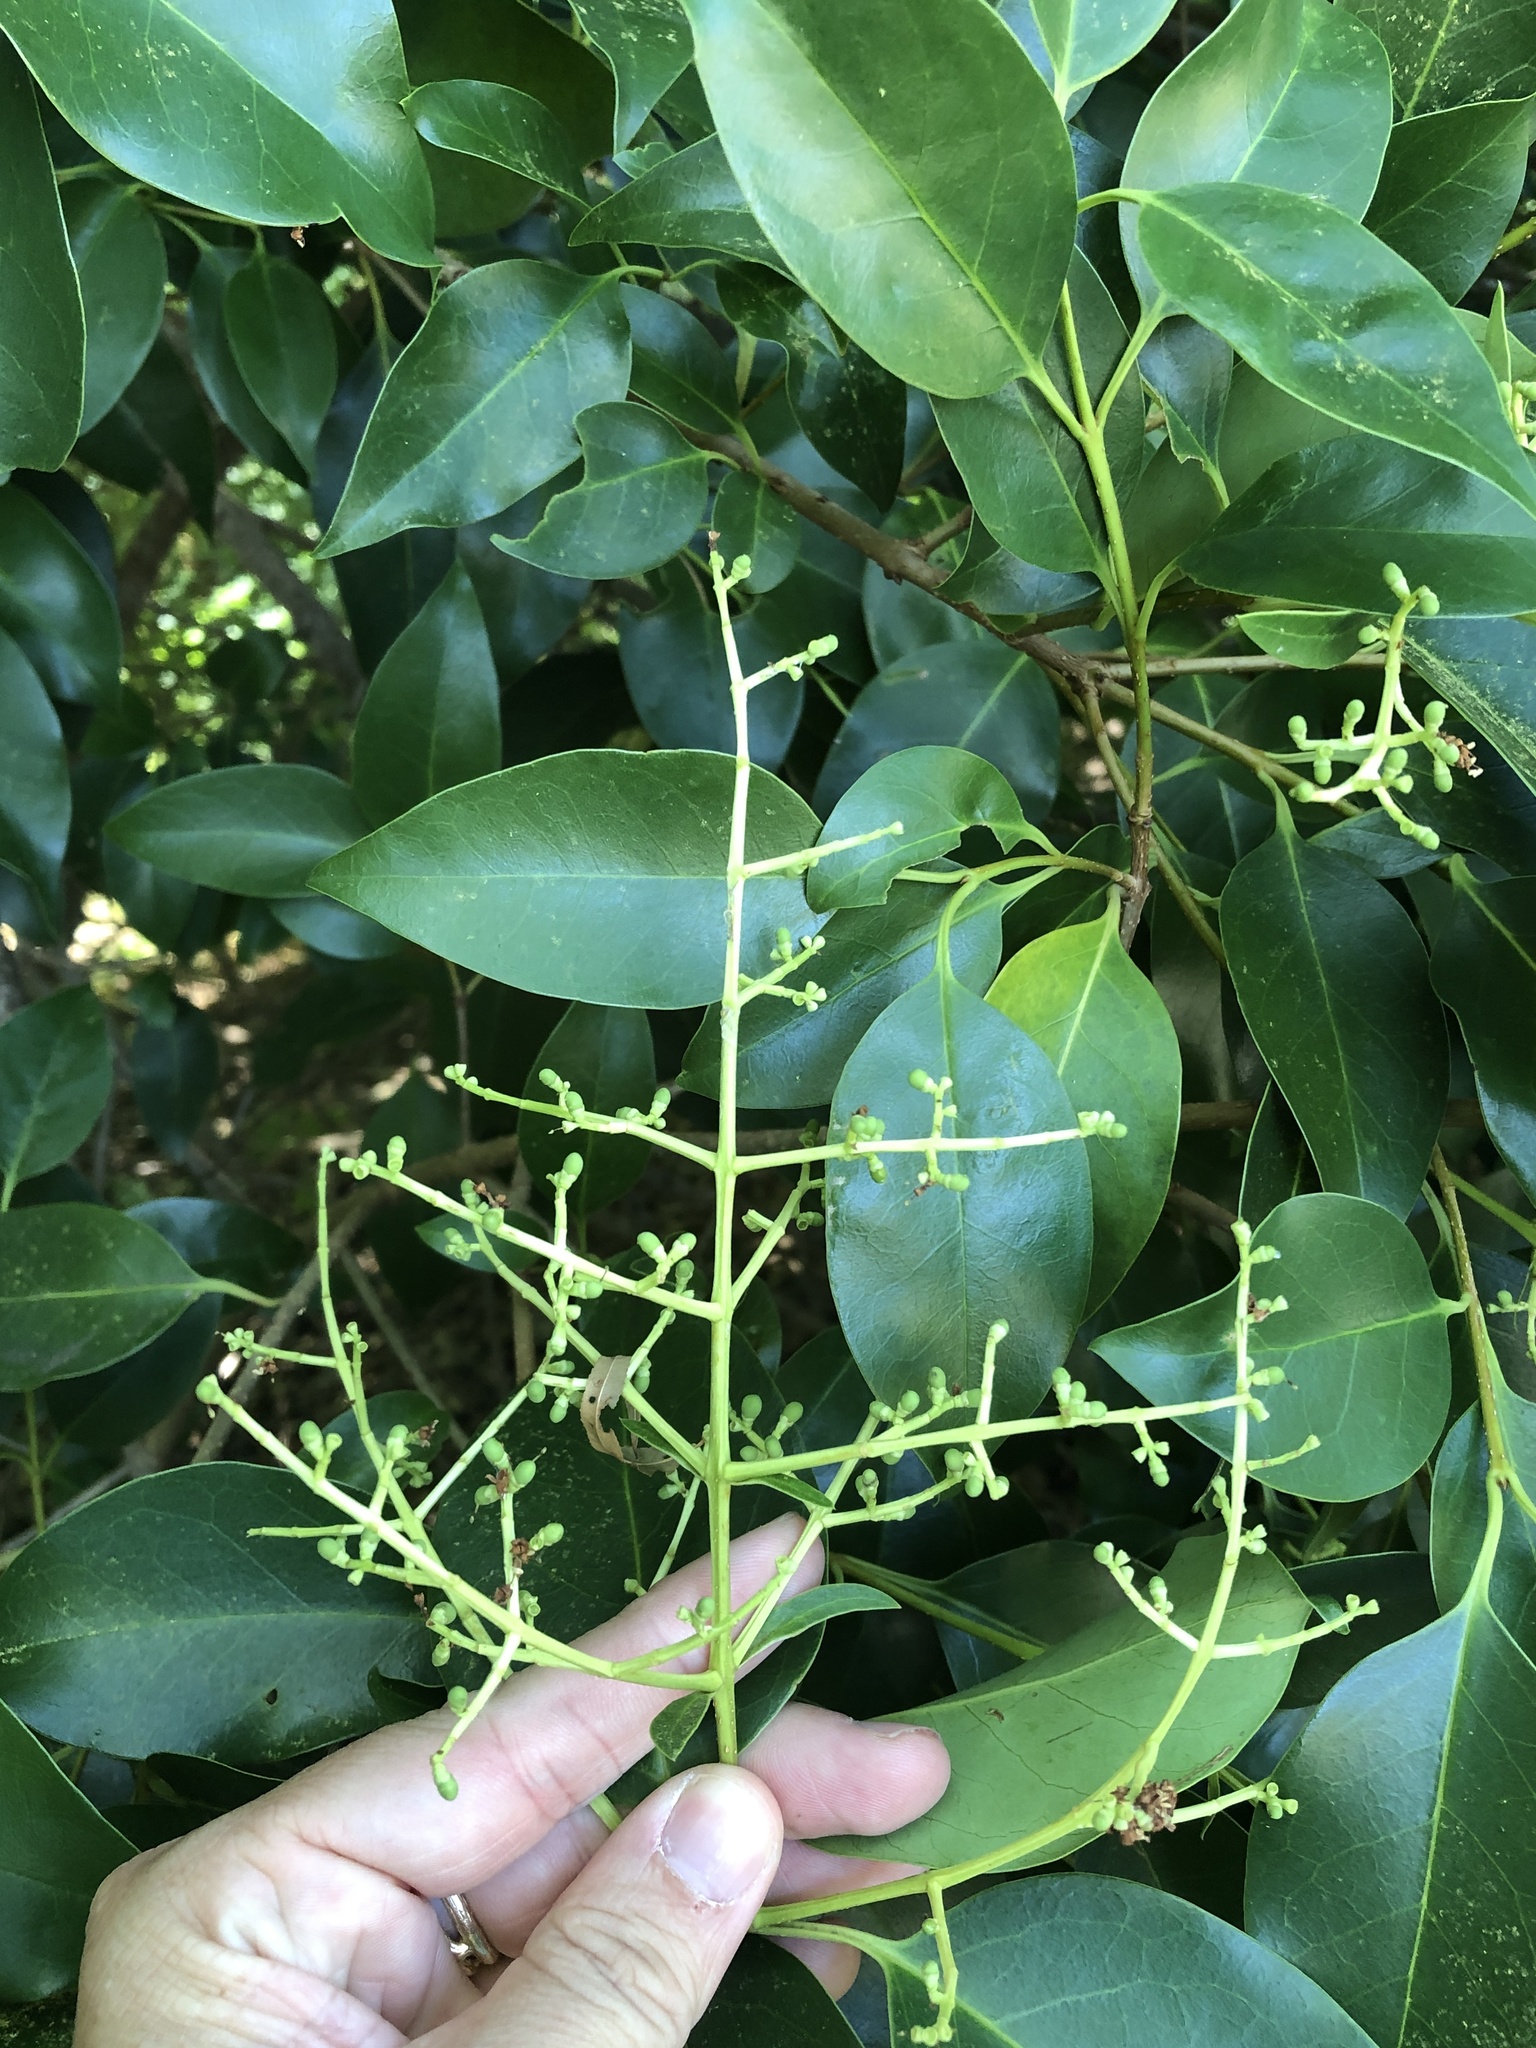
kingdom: Plantae
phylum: Tracheophyta
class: Magnoliopsida
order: Lamiales
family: Oleaceae
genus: Ligustrum
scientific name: Ligustrum lucidum
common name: Glossy privet
